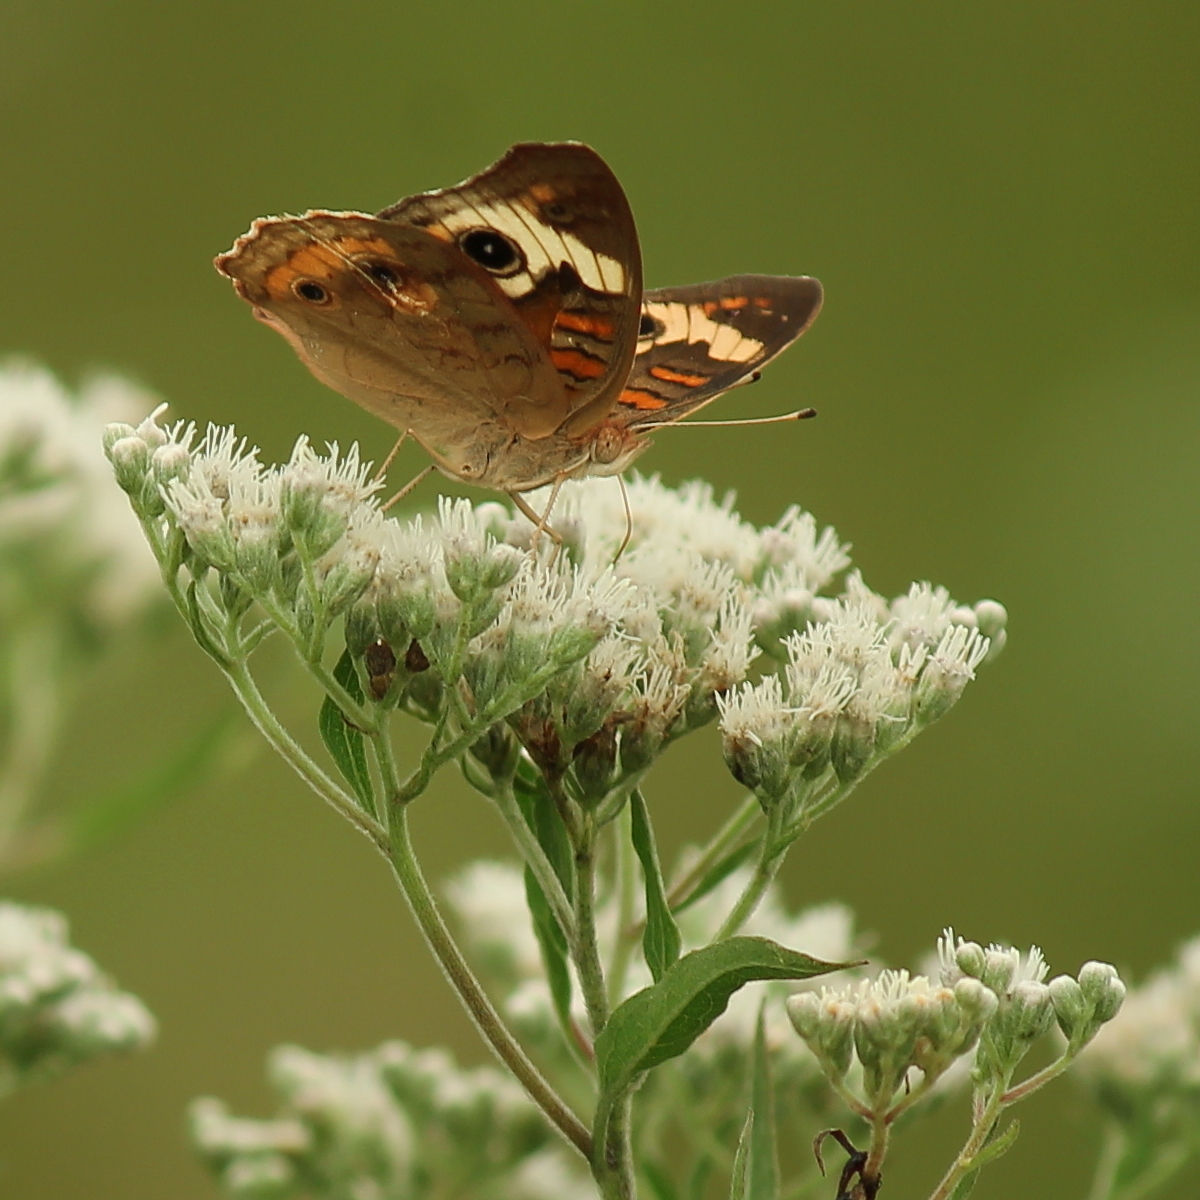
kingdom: Animalia
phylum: Arthropoda
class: Insecta
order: Lepidoptera
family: Nymphalidae
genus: Junonia
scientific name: Junonia coenia
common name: Common buckeye
